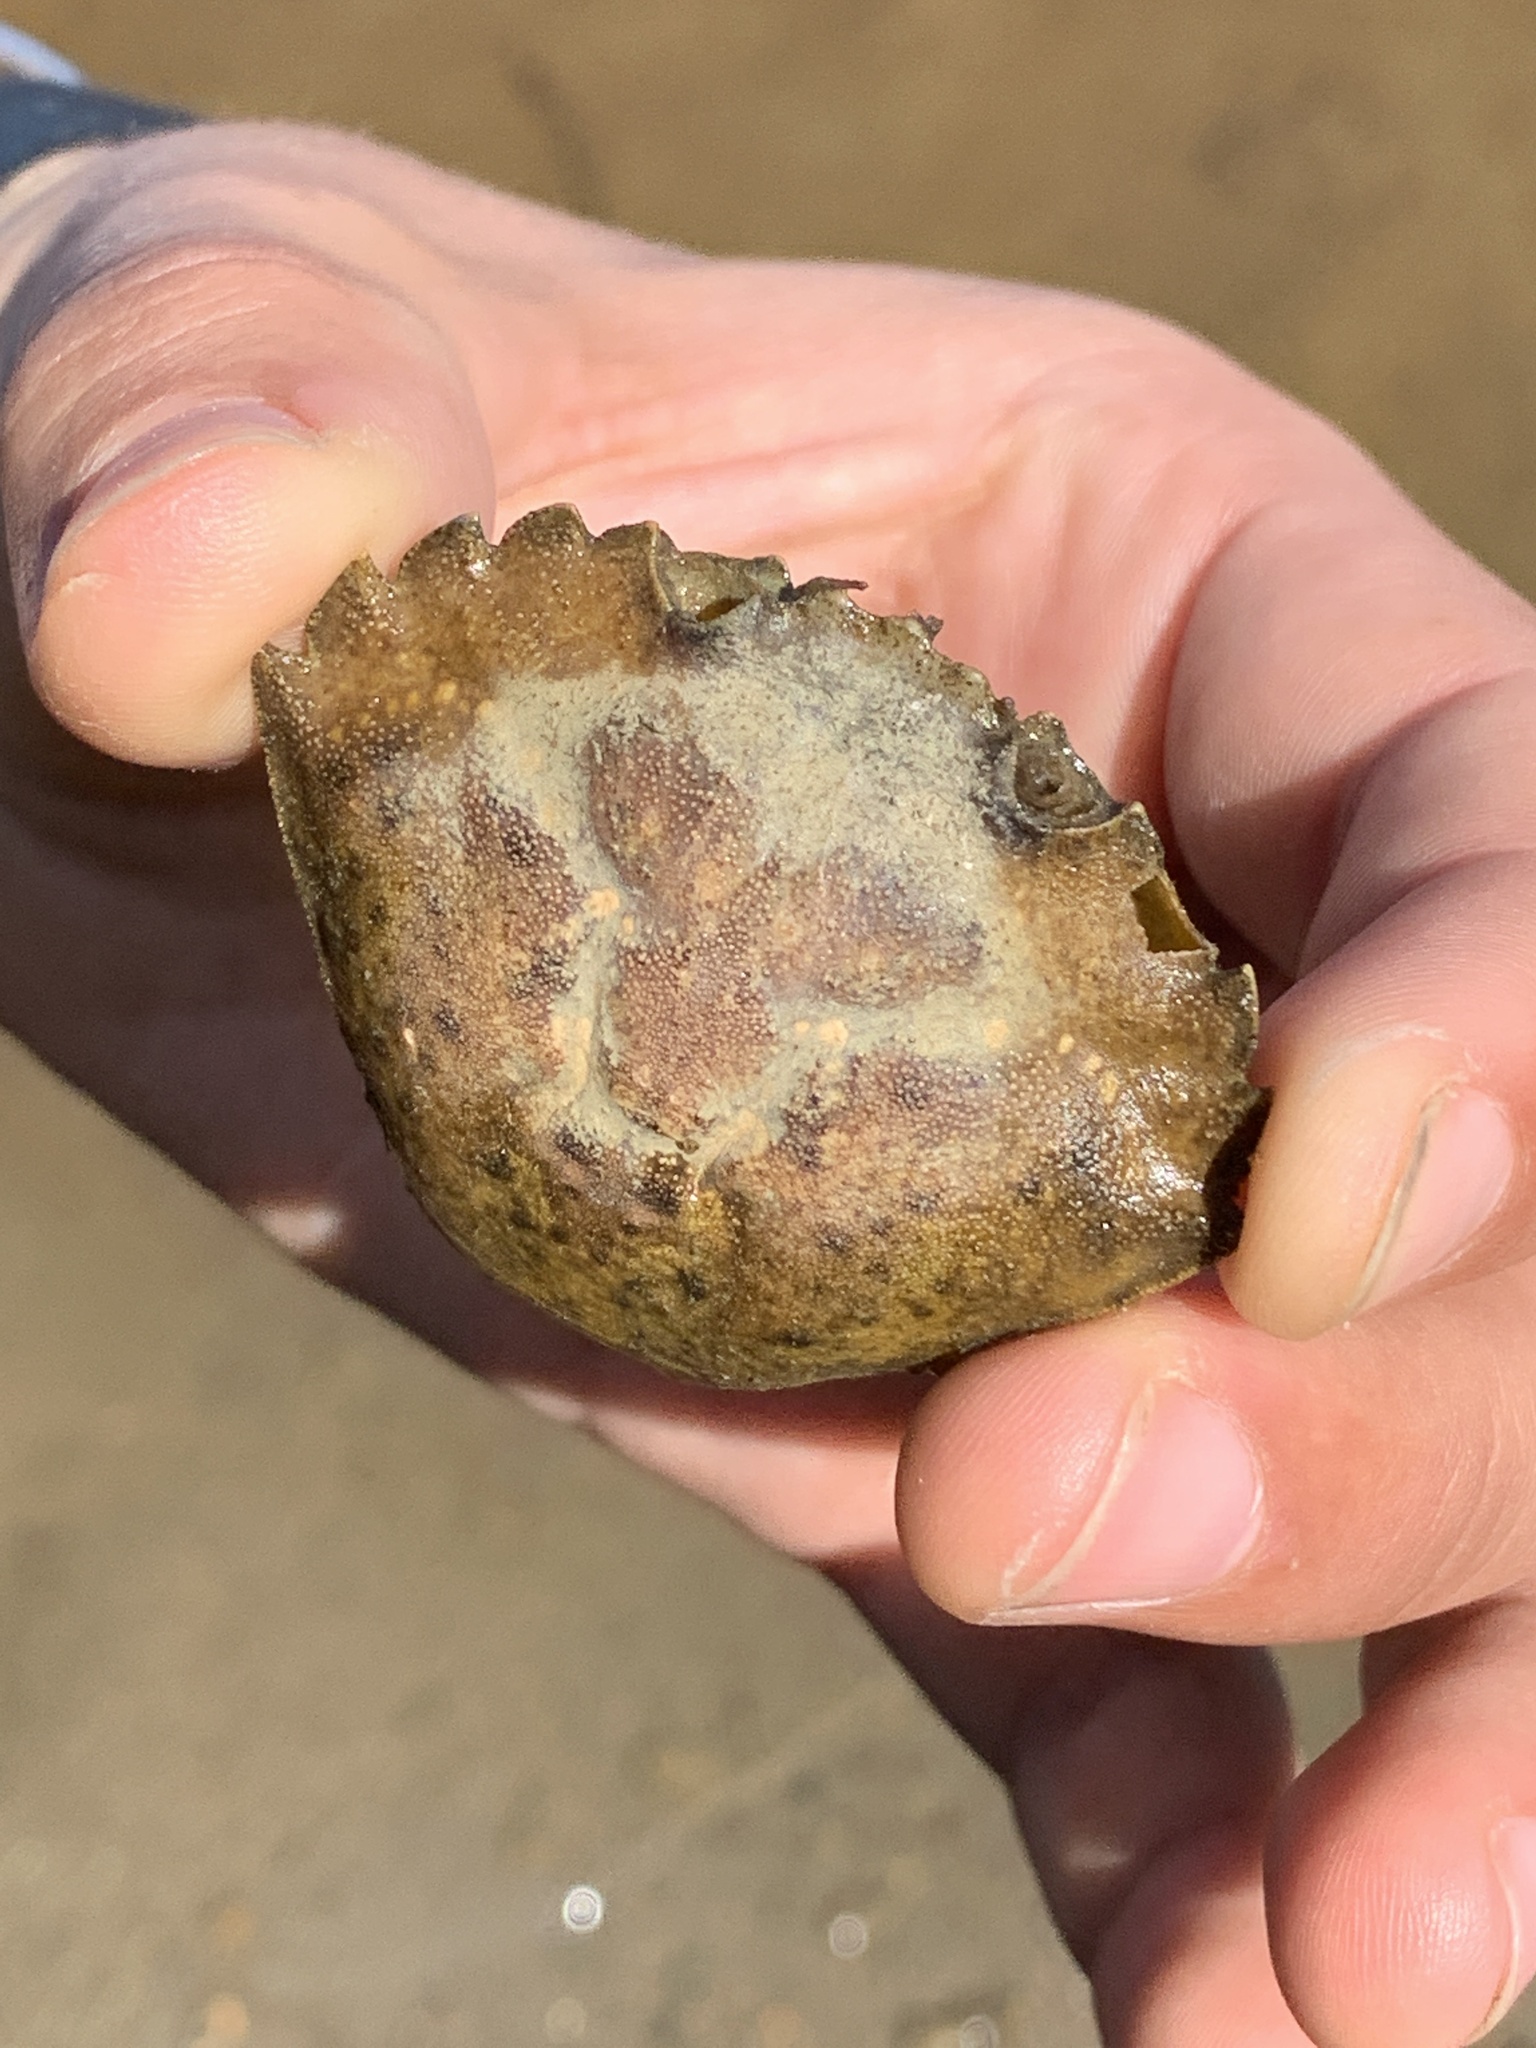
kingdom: Animalia
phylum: Arthropoda
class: Malacostraca
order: Decapoda
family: Carcinidae
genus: Carcinus
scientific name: Carcinus maenas
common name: European green crab
